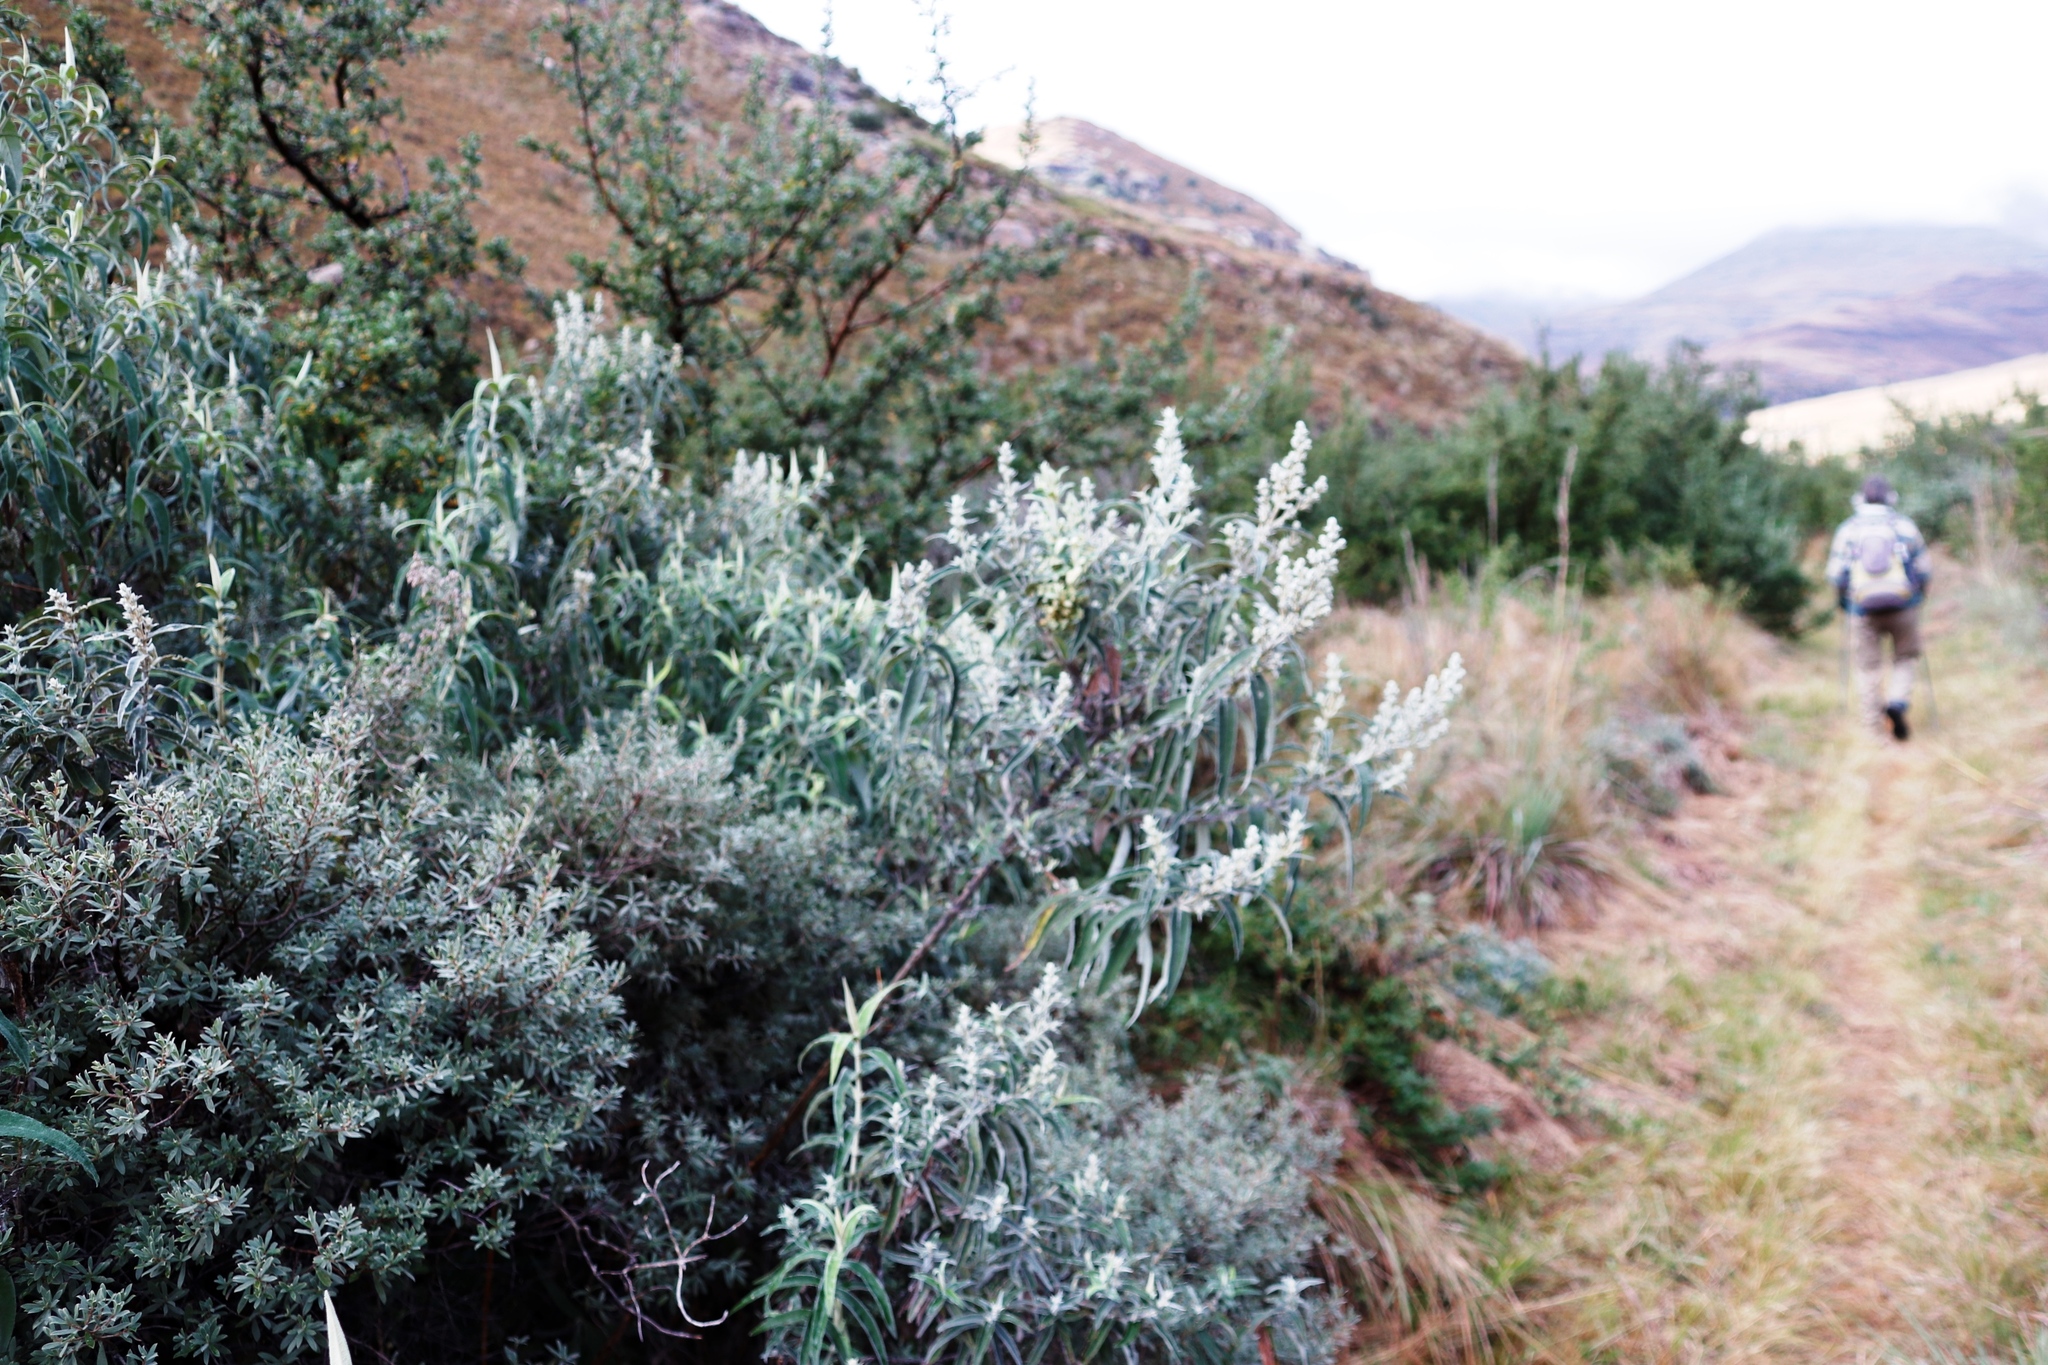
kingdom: Plantae
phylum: Tracheophyta
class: Magnoliopsida
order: Lamiales
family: Scrophulariaceae
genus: Buddleja
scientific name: Buddleja salviifolia
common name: Sagewood
